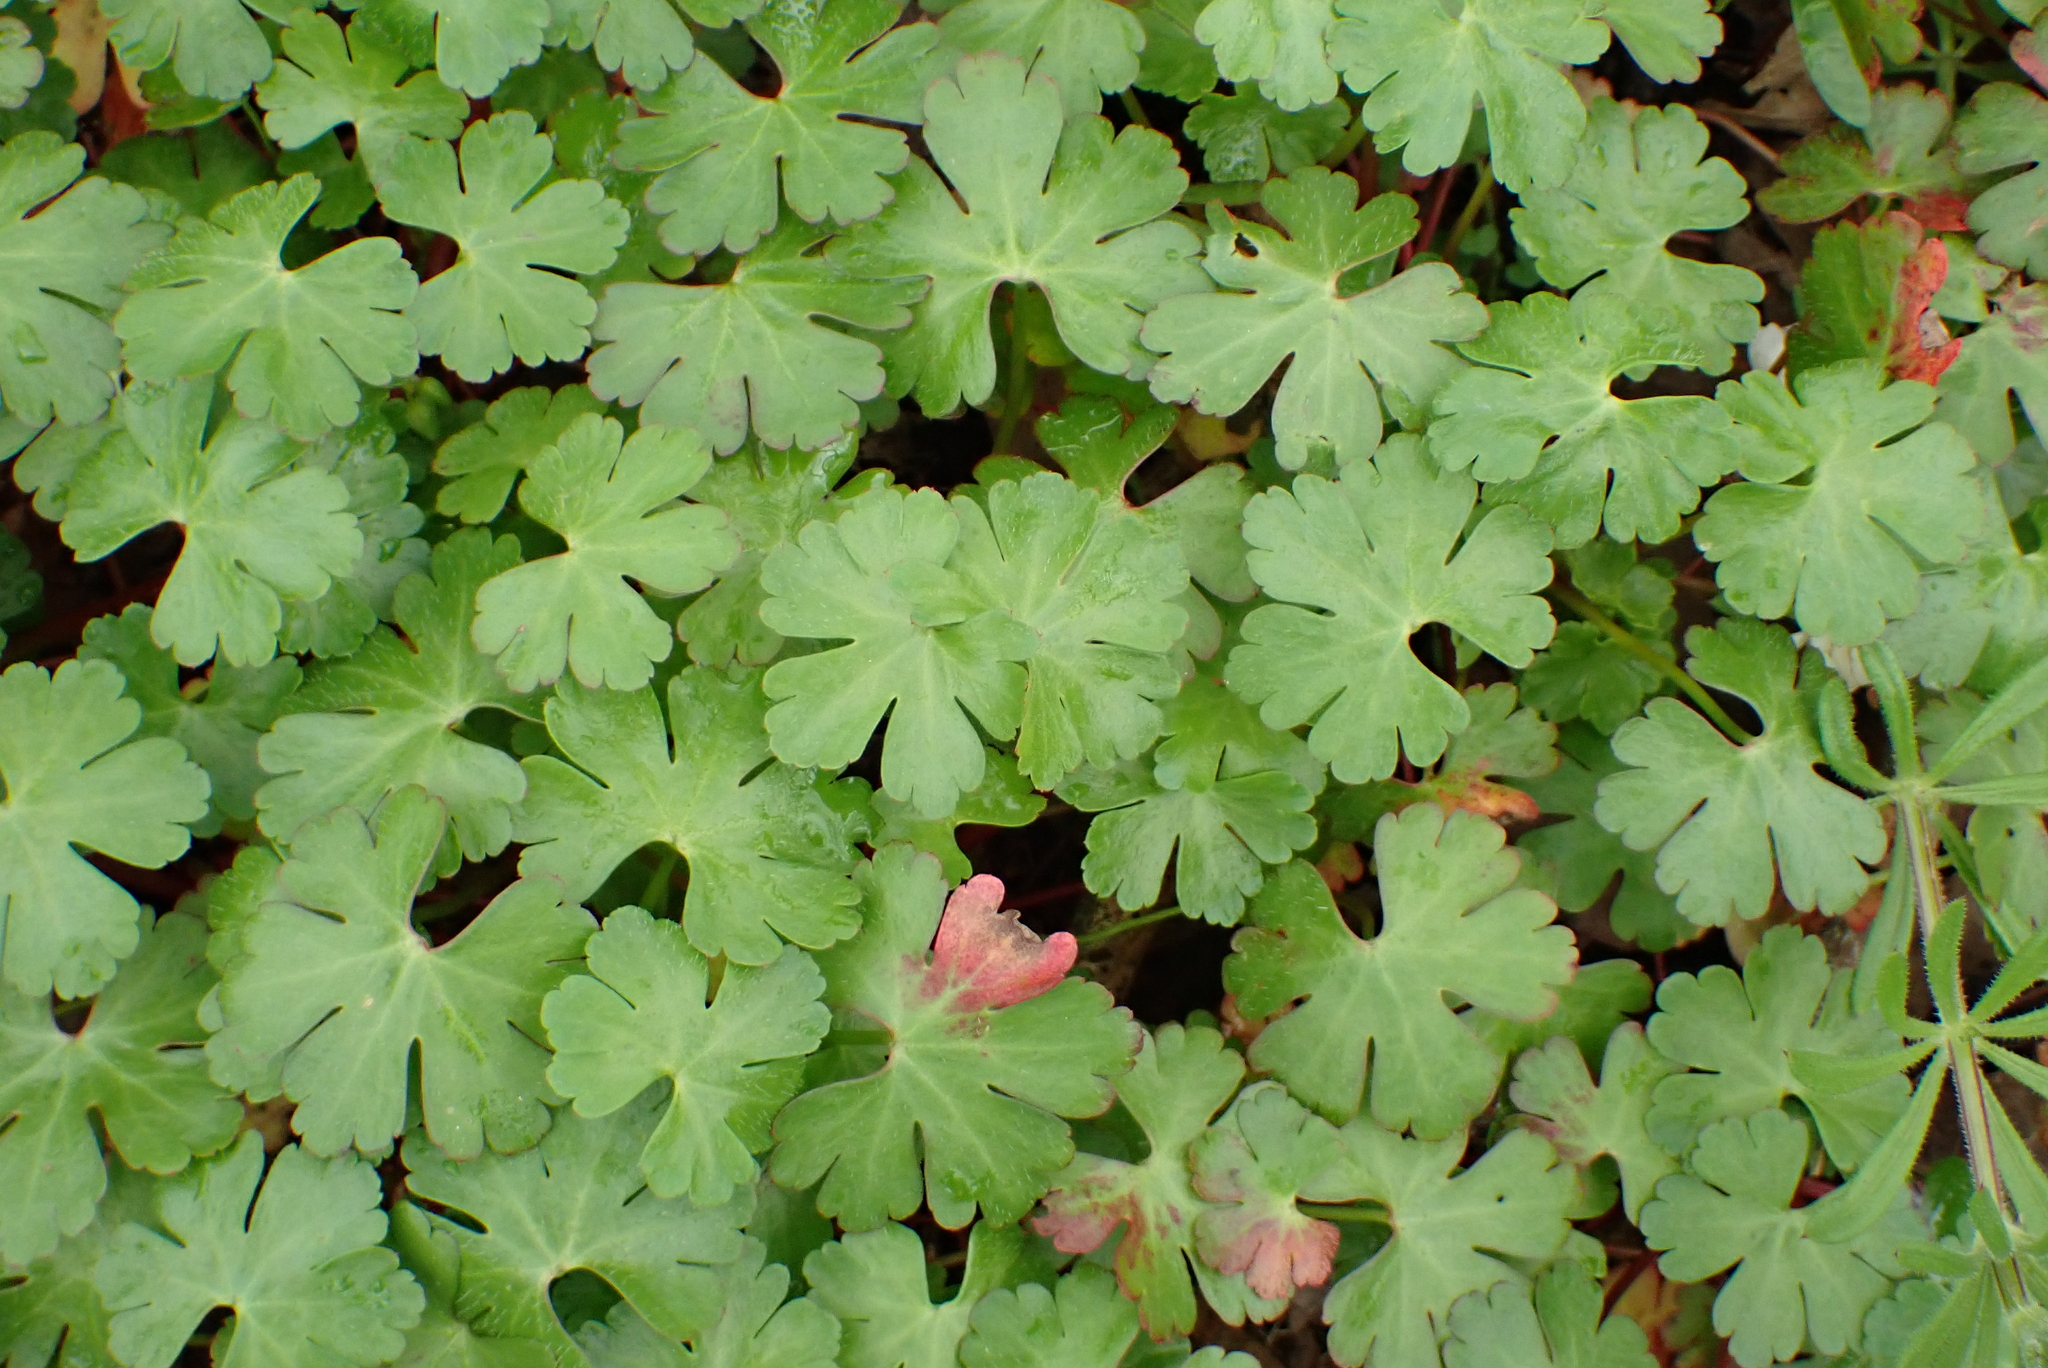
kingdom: Plantae
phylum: Tracheophyta
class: Magnoliopsida
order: Geraniales
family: Geraniaceae
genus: Geranium
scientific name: Geranium lucidum
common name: Shining crane's-bill
